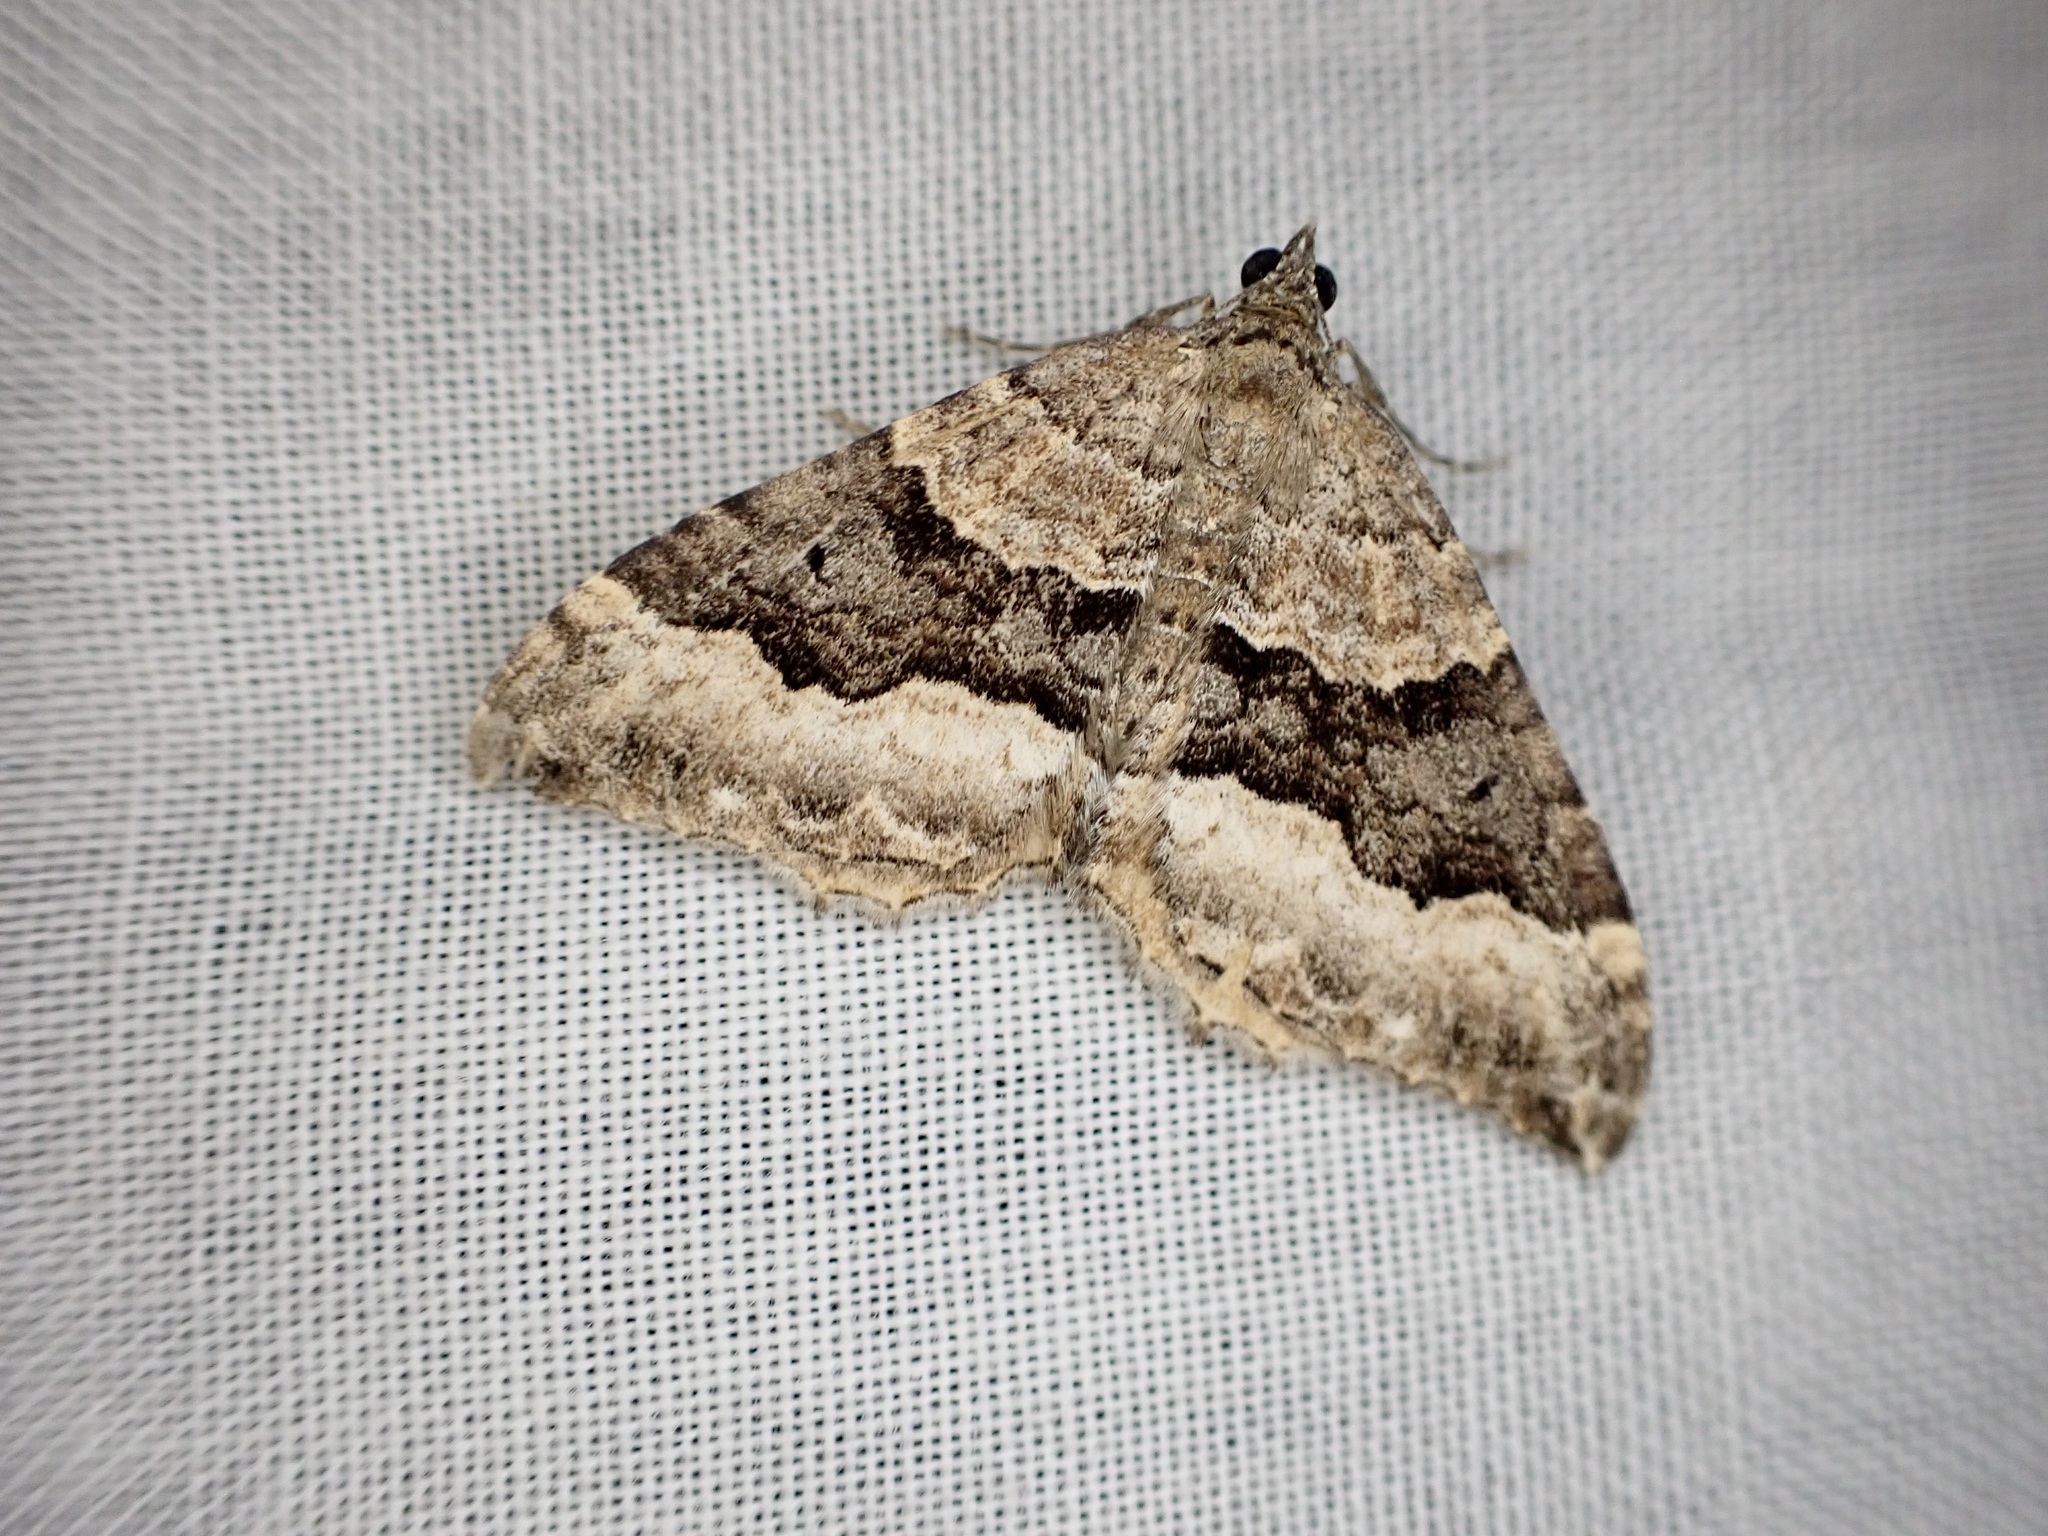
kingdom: Animalia
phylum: Arthropoda
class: Insecta
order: Lepidoptera
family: Geometridae
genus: Hydriomena
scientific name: Hydriomena deltoidata
